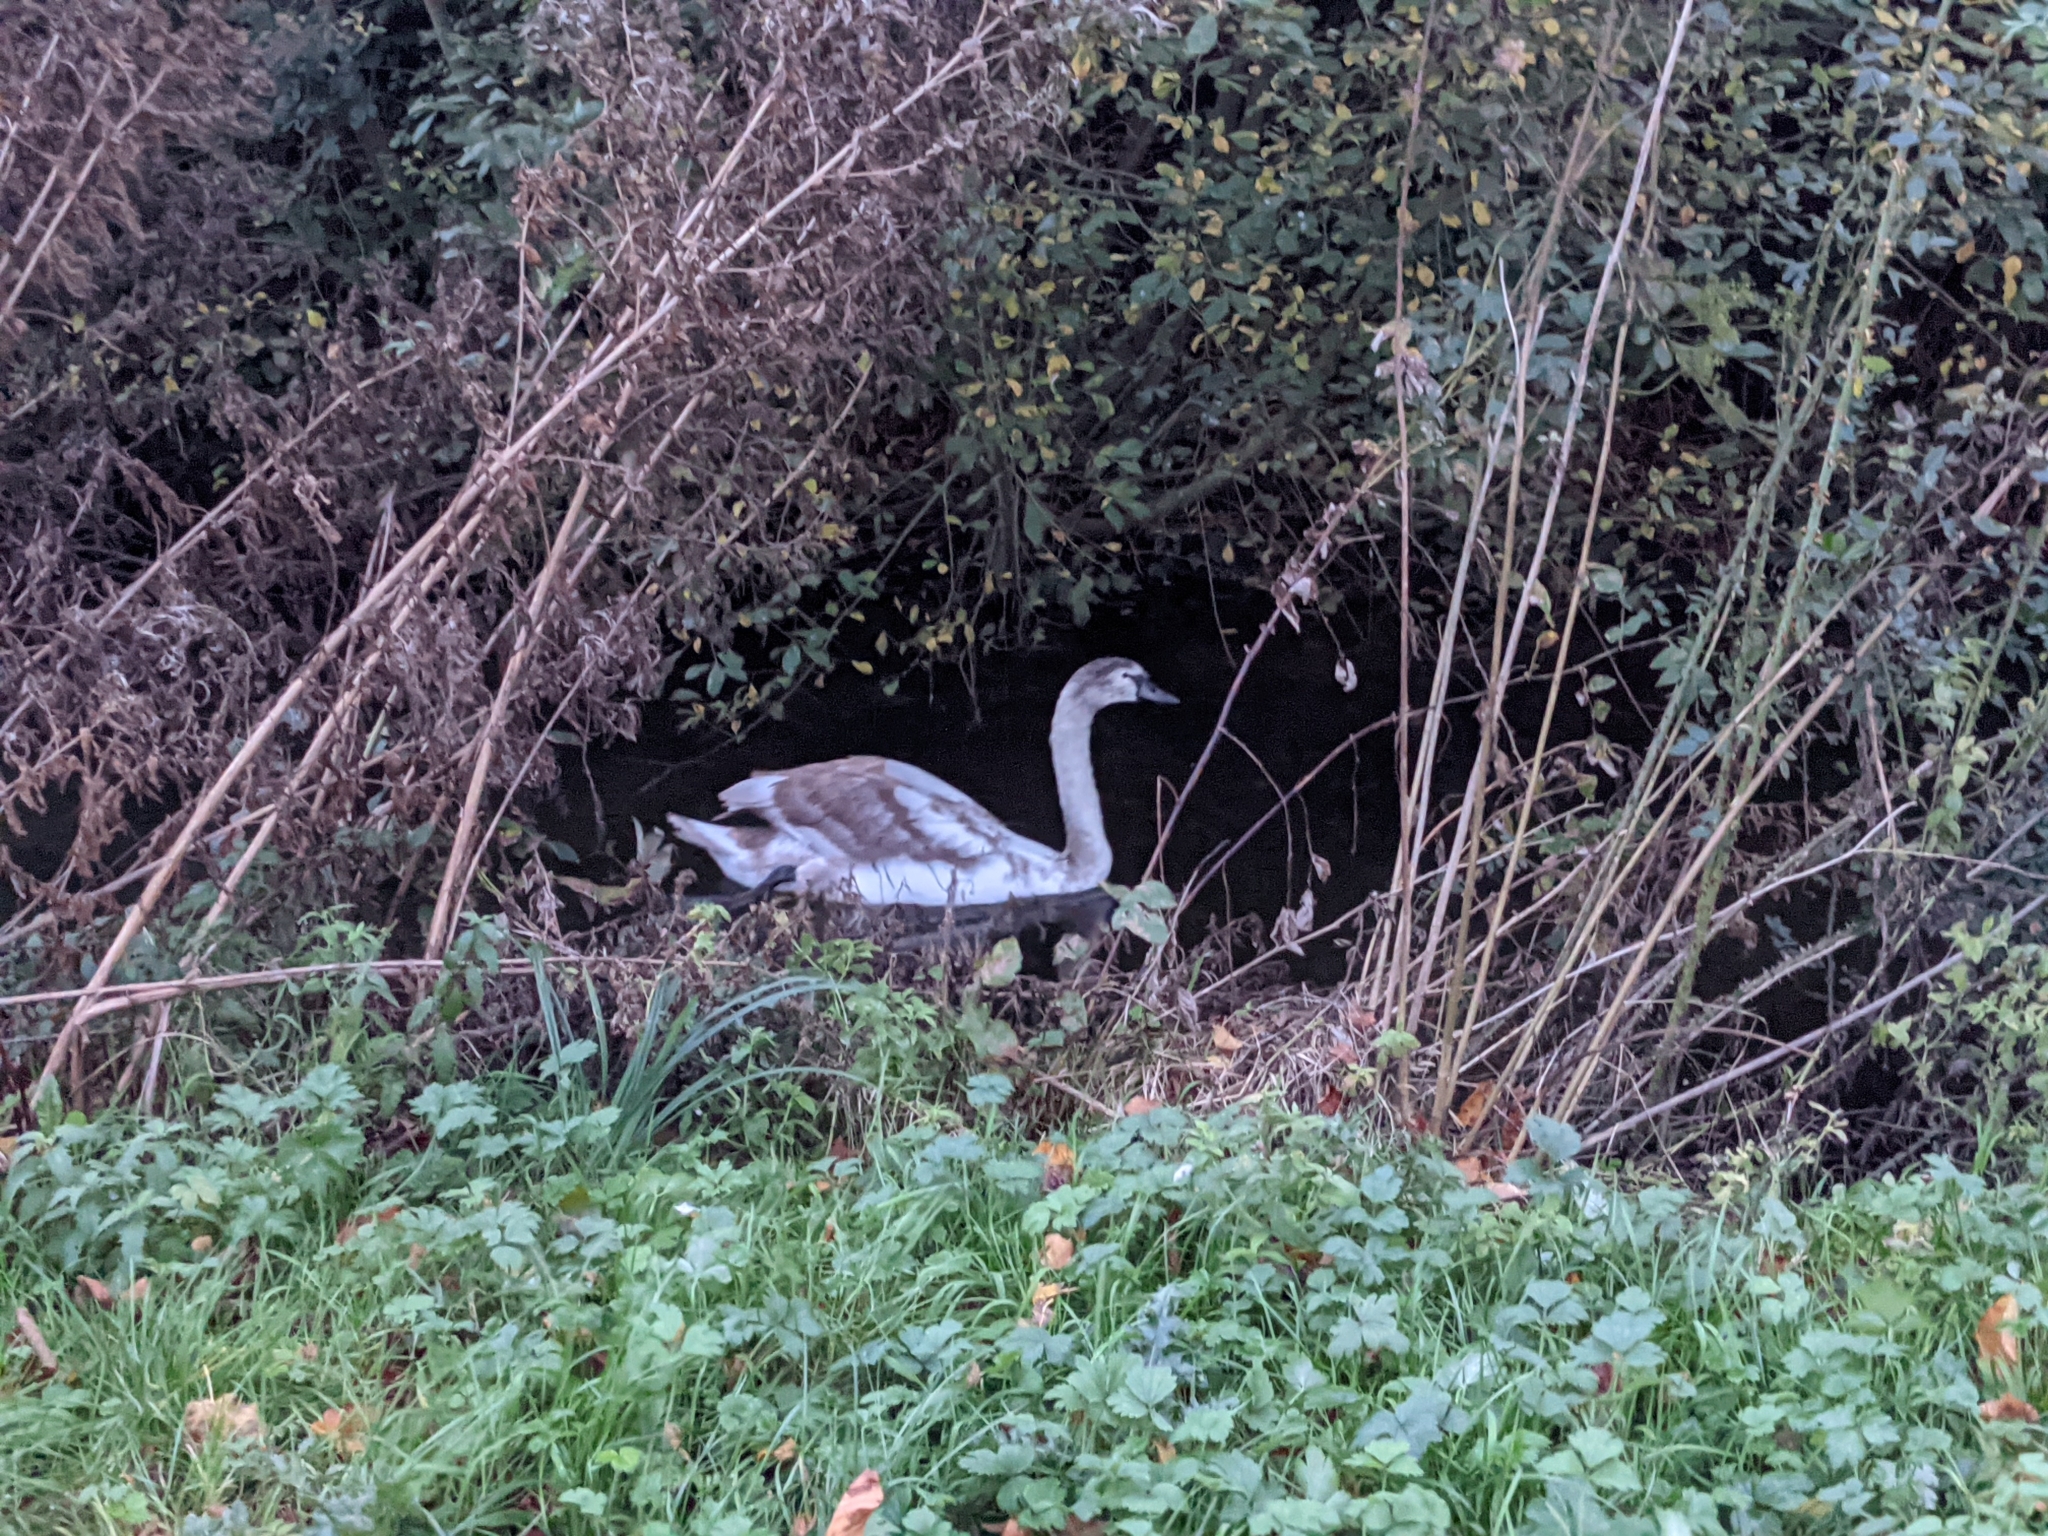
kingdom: Animalia
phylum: Chordata
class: Aves
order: Anseriformes
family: Anatidae
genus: Cygnus
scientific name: Cygnus olor
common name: Mute swan
